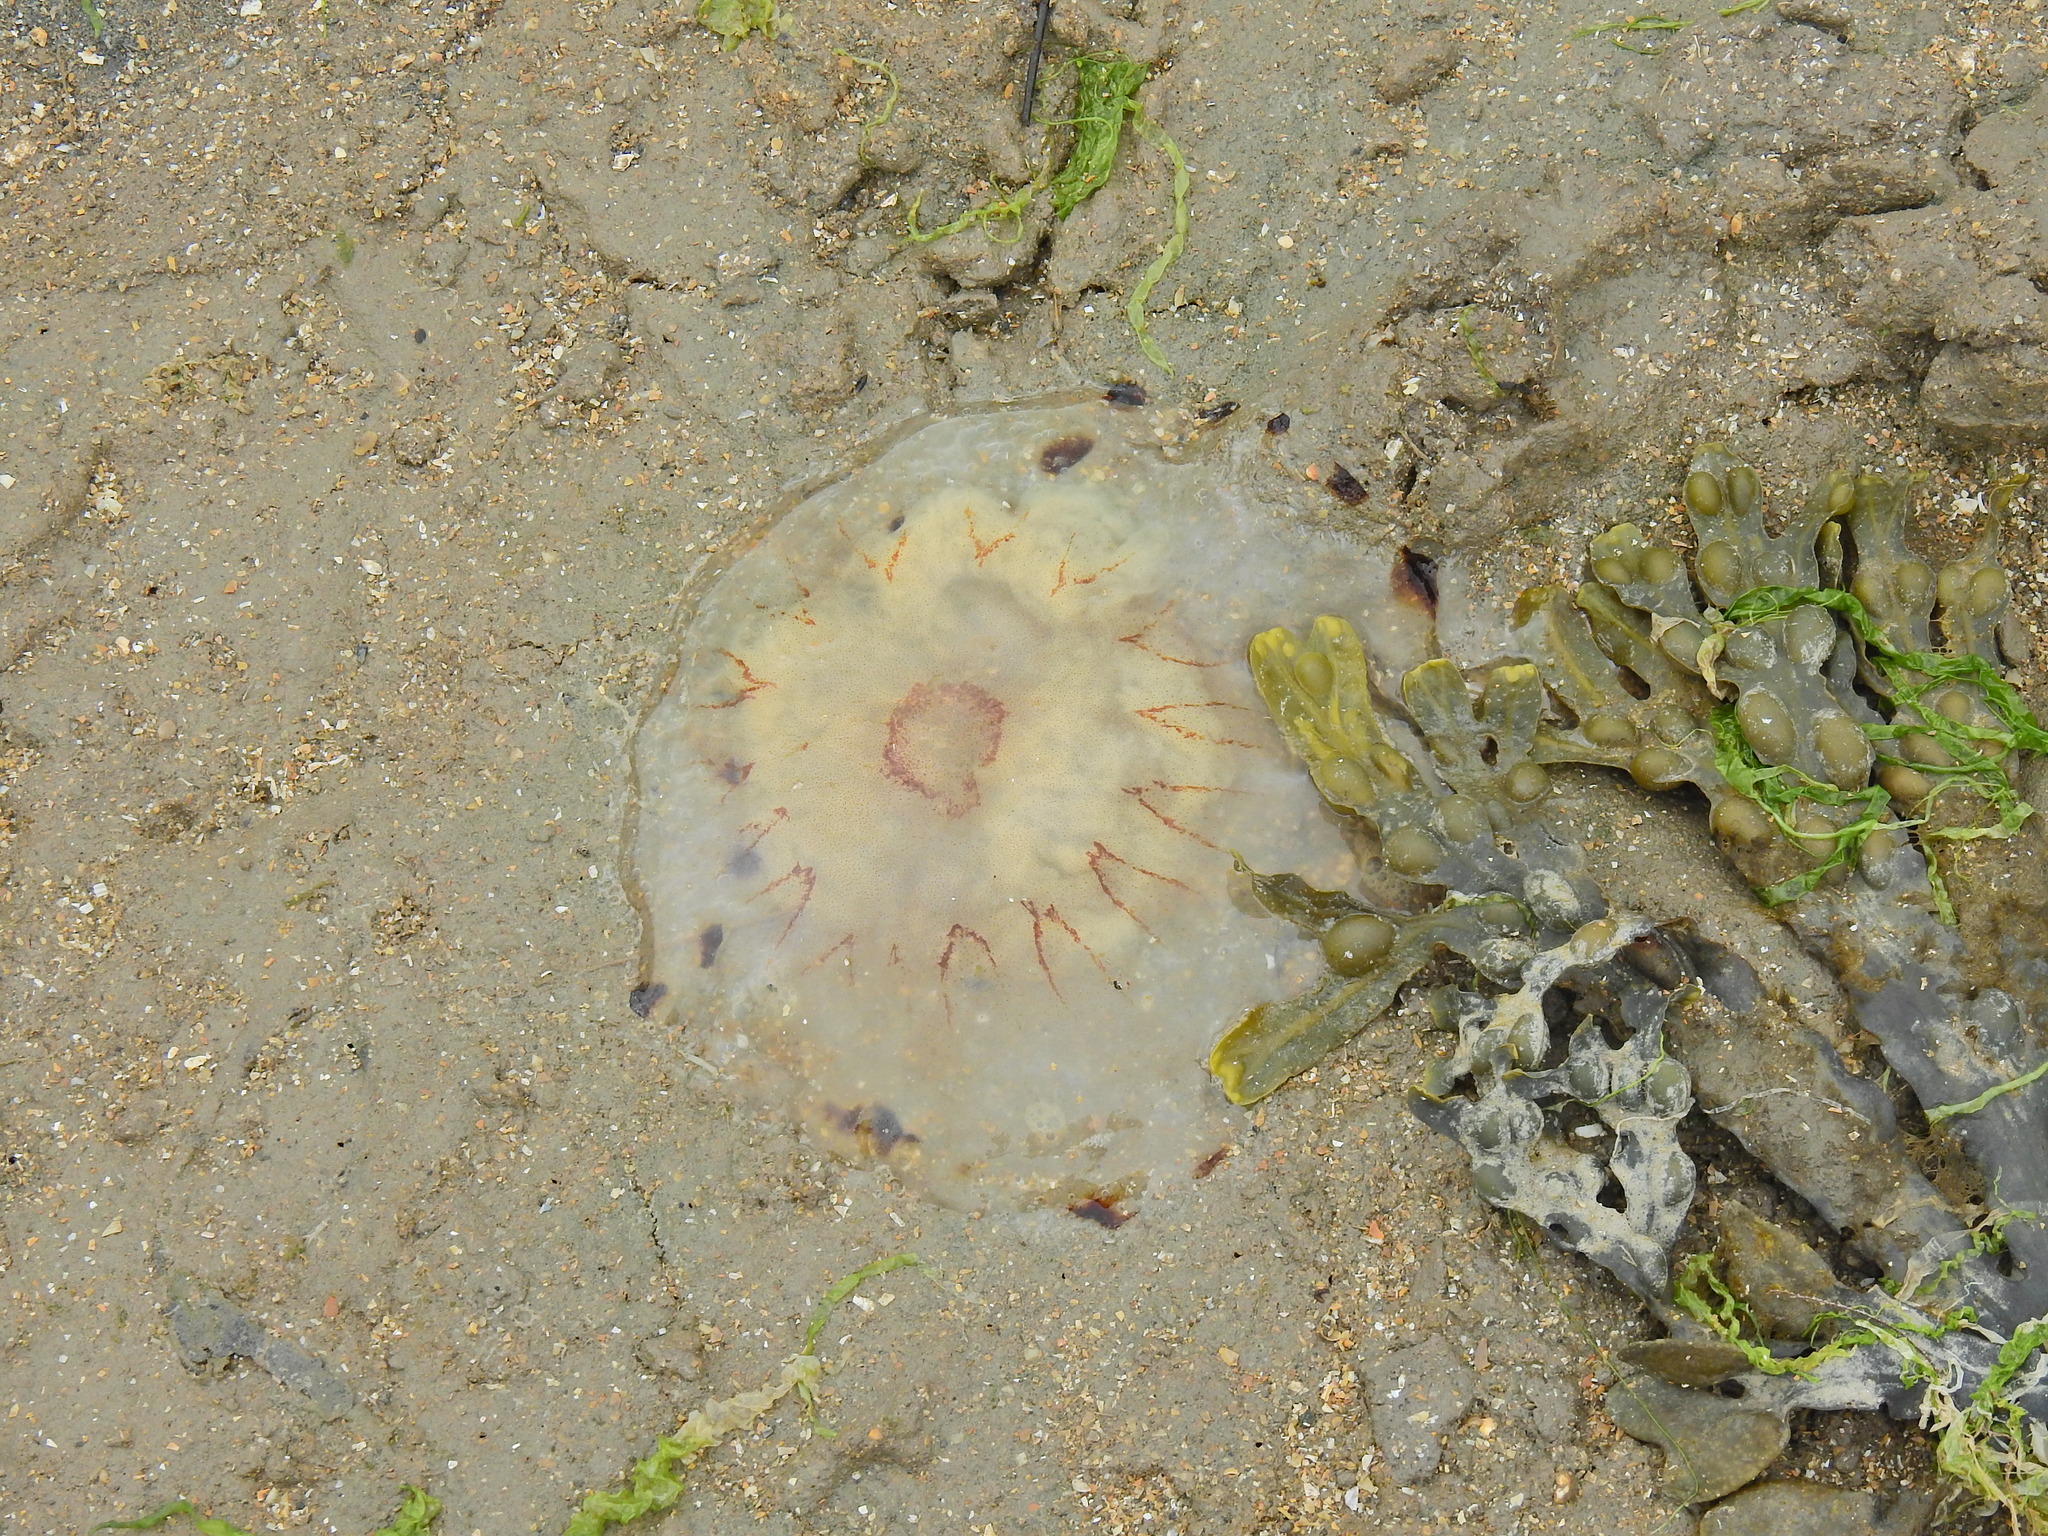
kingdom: Animalia
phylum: Cnidaria
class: Scyphozoa
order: Semaeostomeae
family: Pelagiidae
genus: Chrysaora
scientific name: Chrysaora hysoscella
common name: Compass jellyfish
